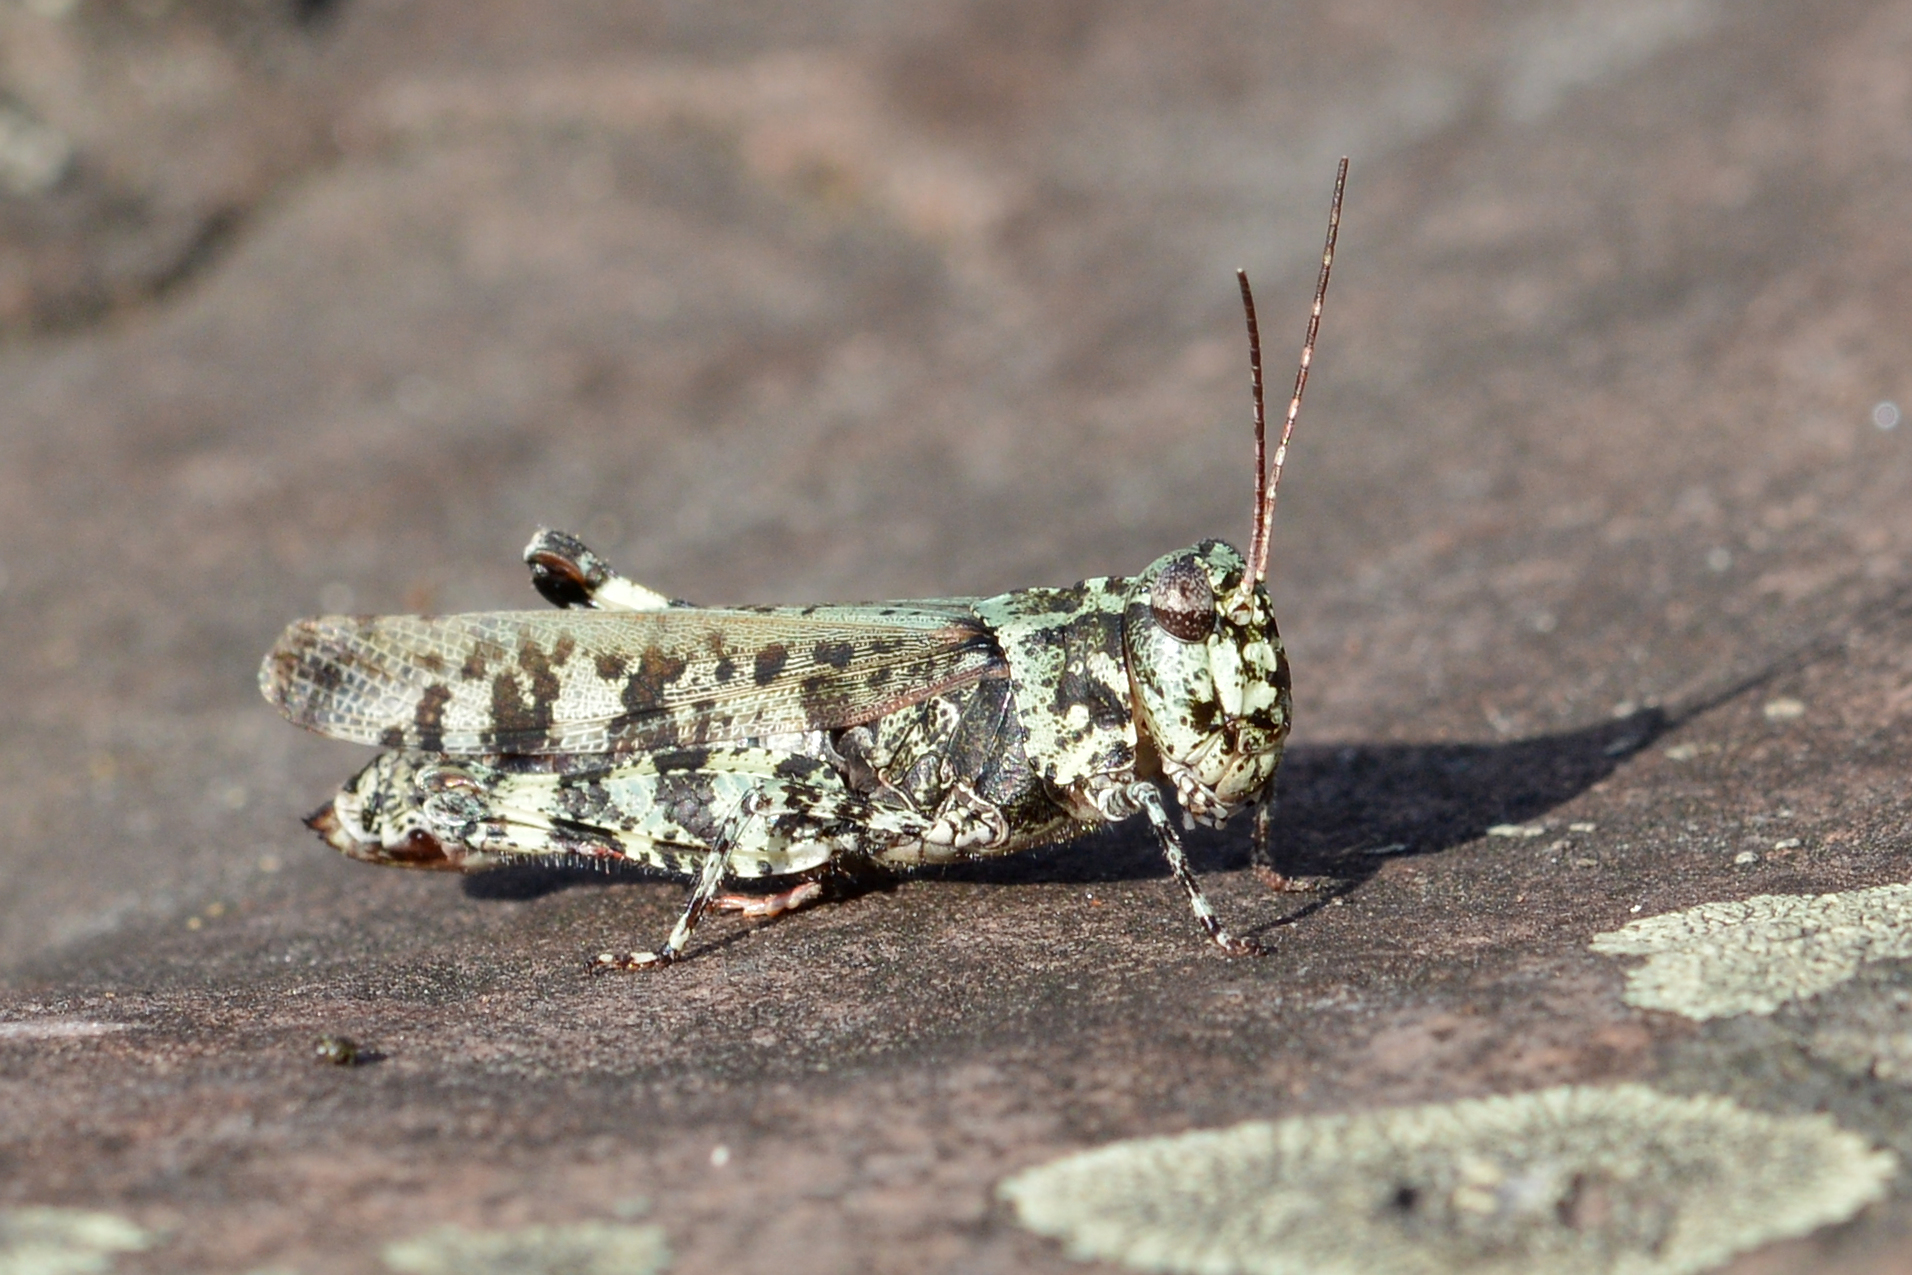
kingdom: Animalia
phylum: Arthropoda
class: Insecta
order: Orthoptera
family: Acrididae
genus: Spharagemon
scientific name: Spharagemon marmoratum
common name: Marbled grasshopper
